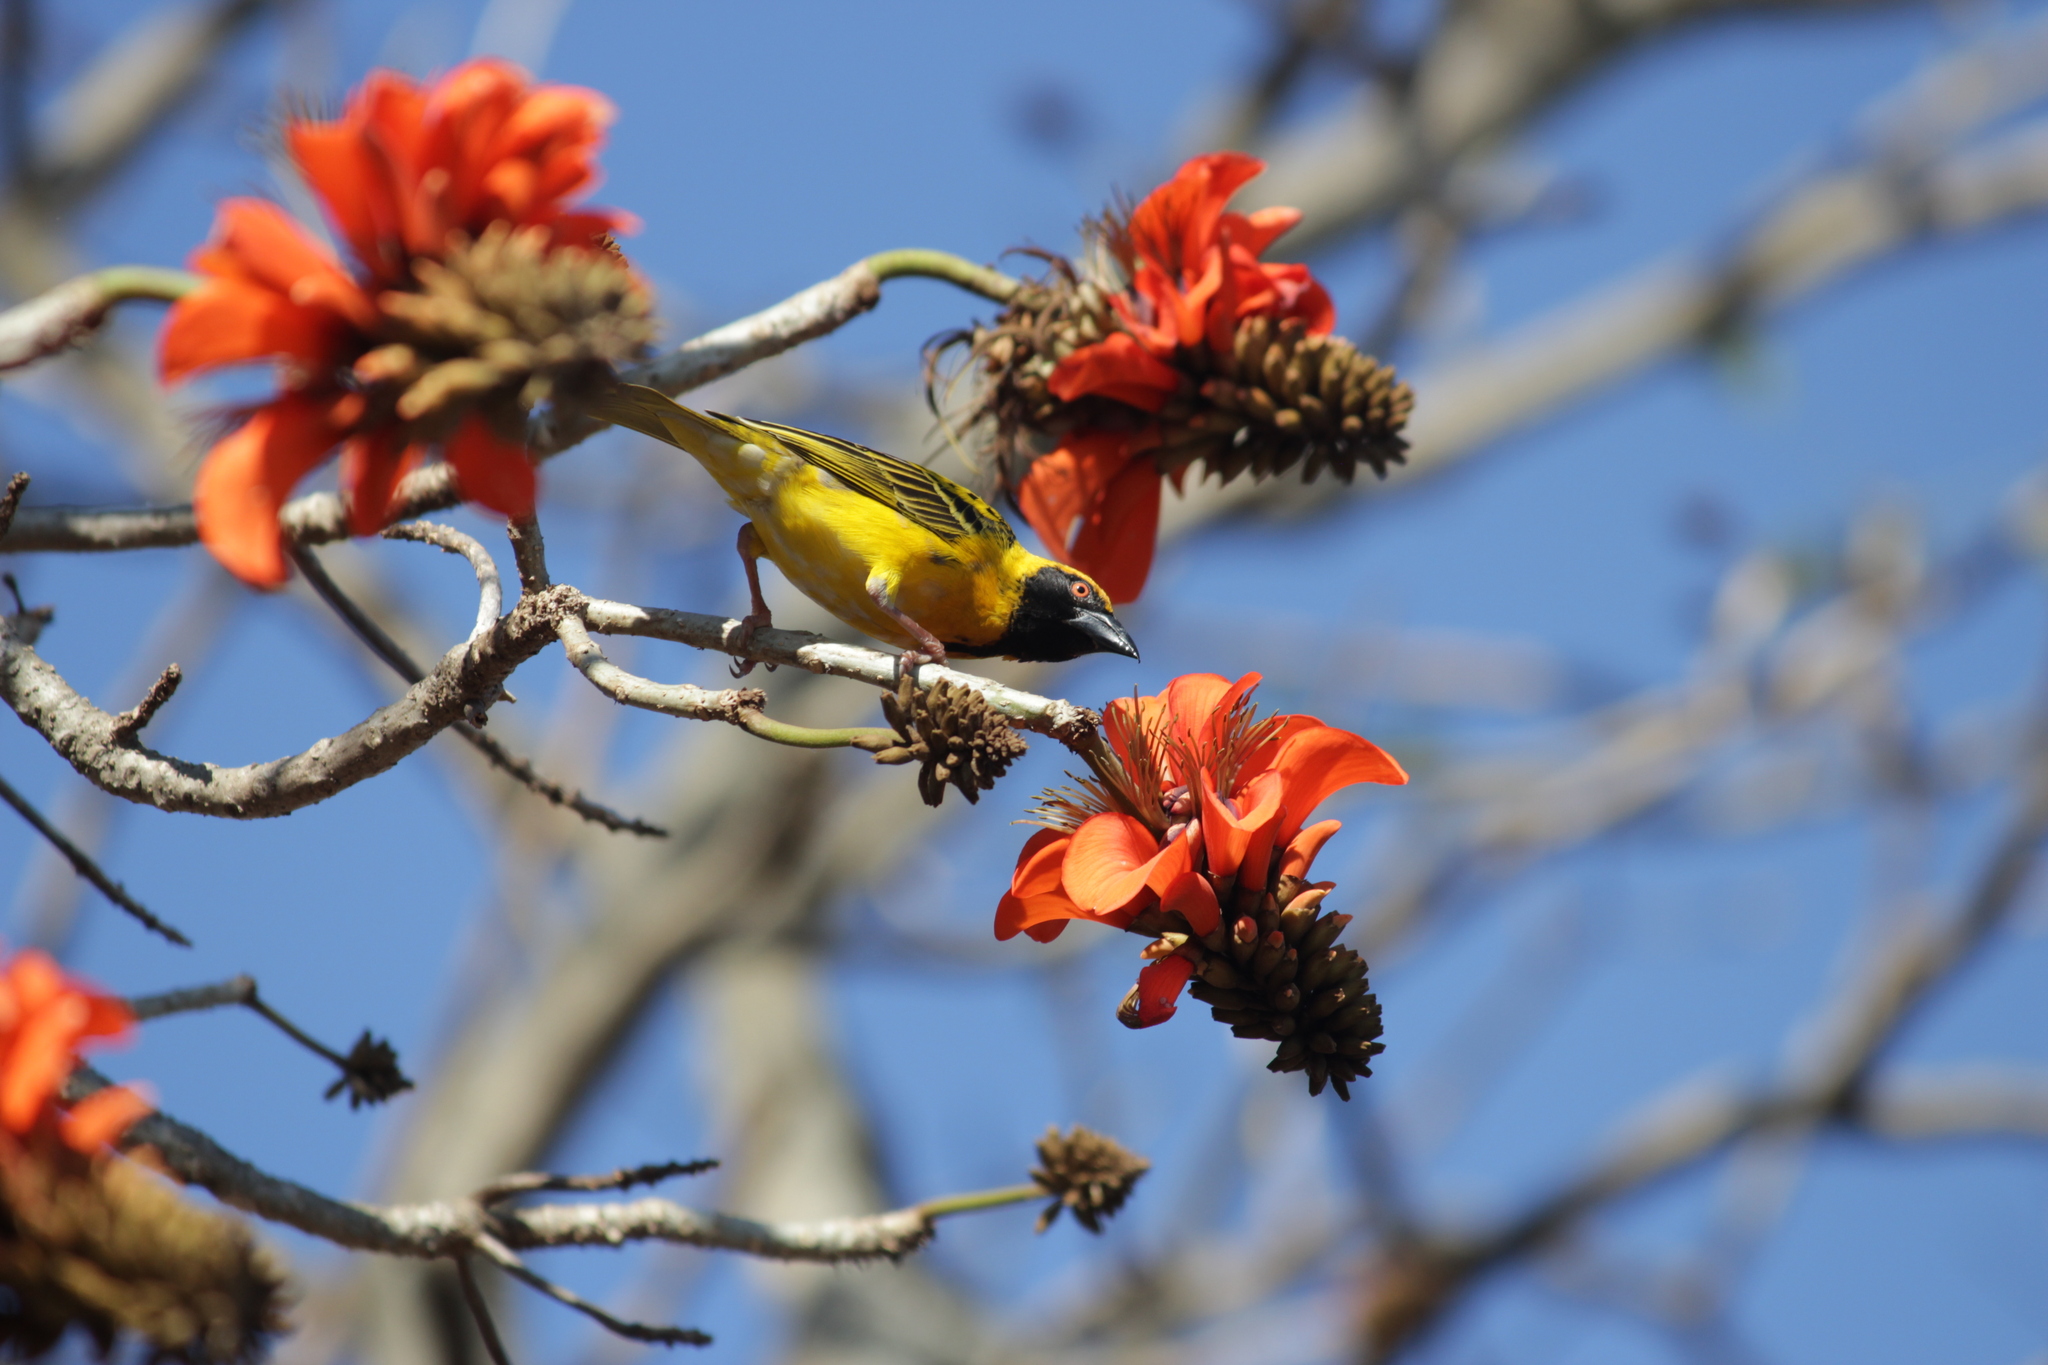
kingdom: Animalia
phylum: Chordata
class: Aves
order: Passeriformes
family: Ploceidae
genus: Ploceus
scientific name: Ploceus cucullatus
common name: Village weaver
